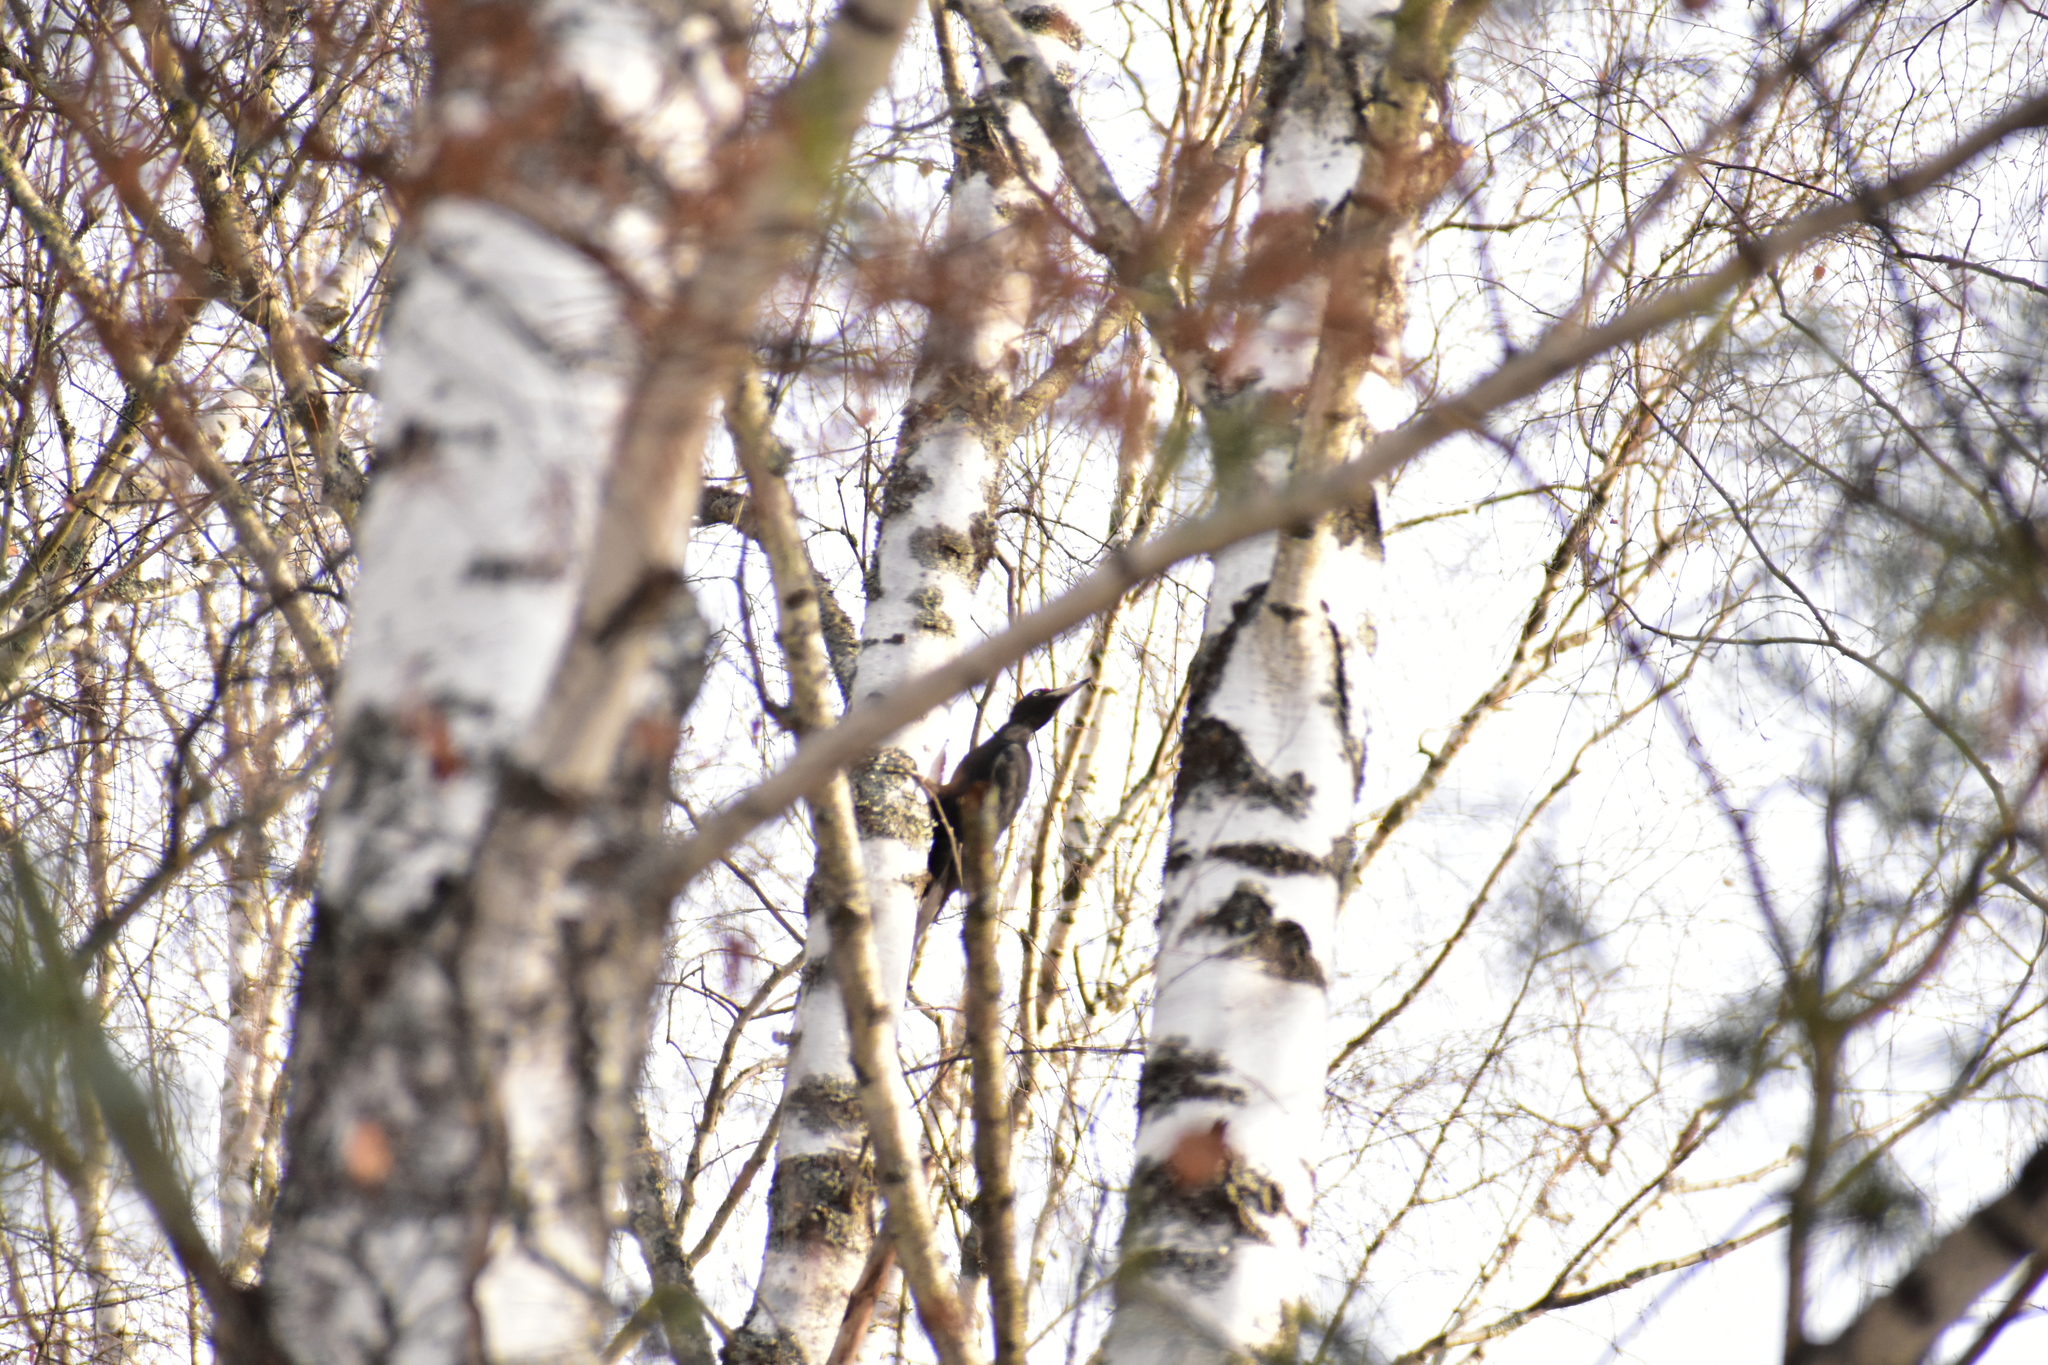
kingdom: Animalia
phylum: Chordata
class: Aves
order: Piciformes
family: Picidae
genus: Dryocopus
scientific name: Dryocopus martius
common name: Black woodpecker
